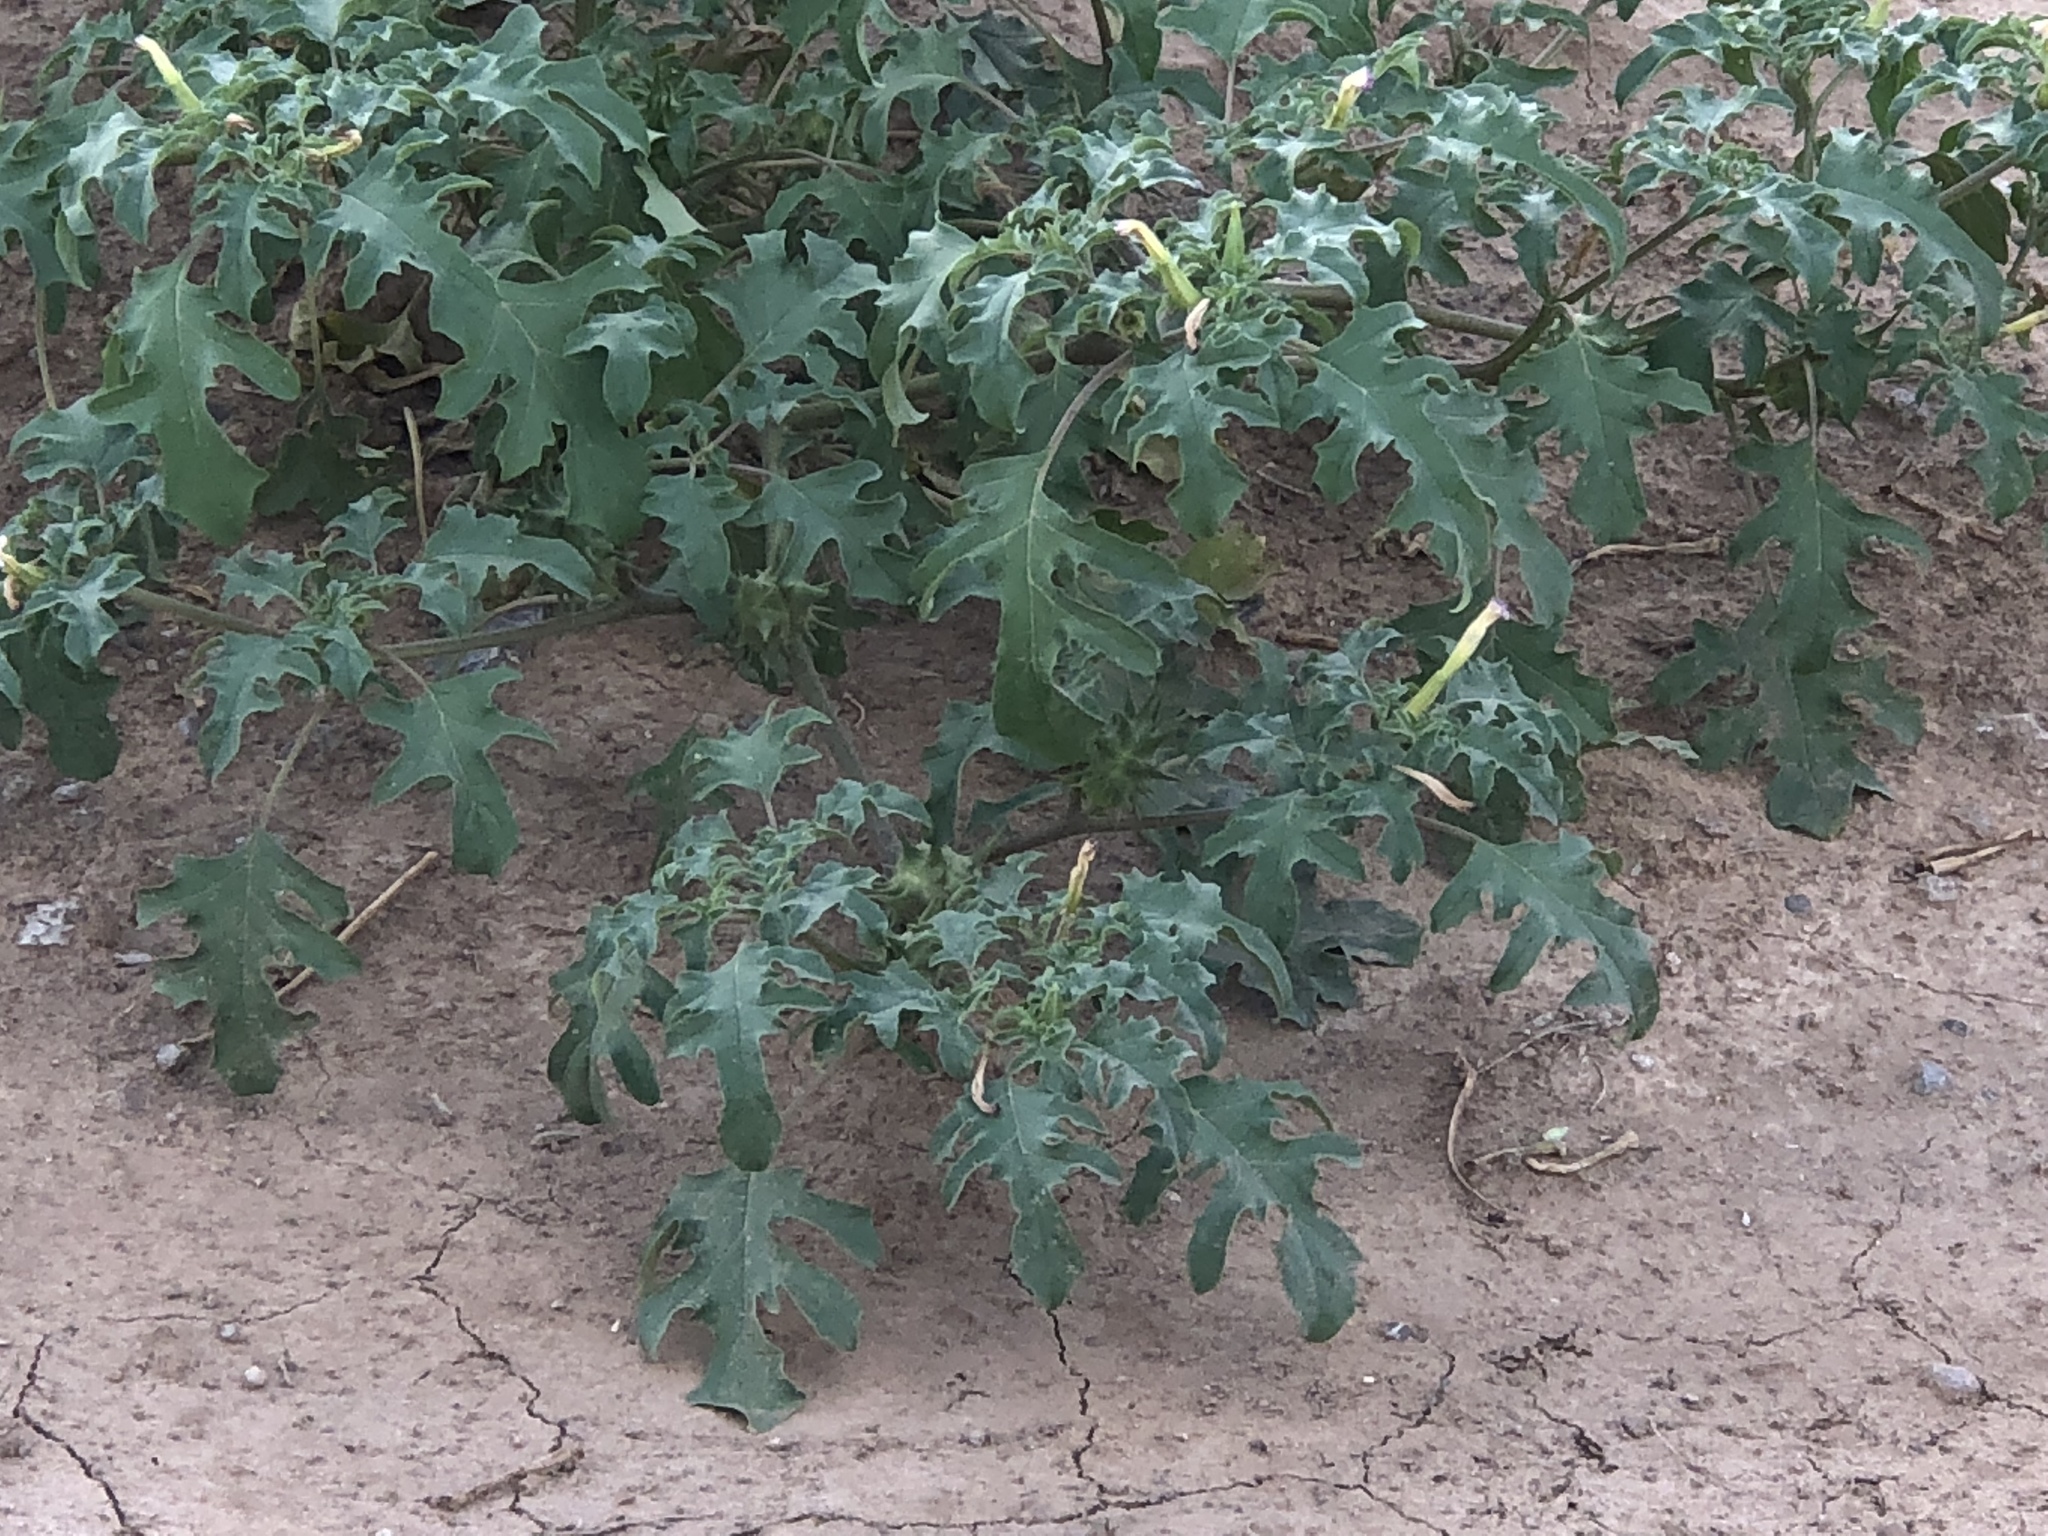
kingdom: Plantae
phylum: Tracheophyta
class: Magnoliopsida
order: Solanales
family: Solanaceae
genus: Datura
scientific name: Datura quercifolia
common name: Oak-leaf datura
